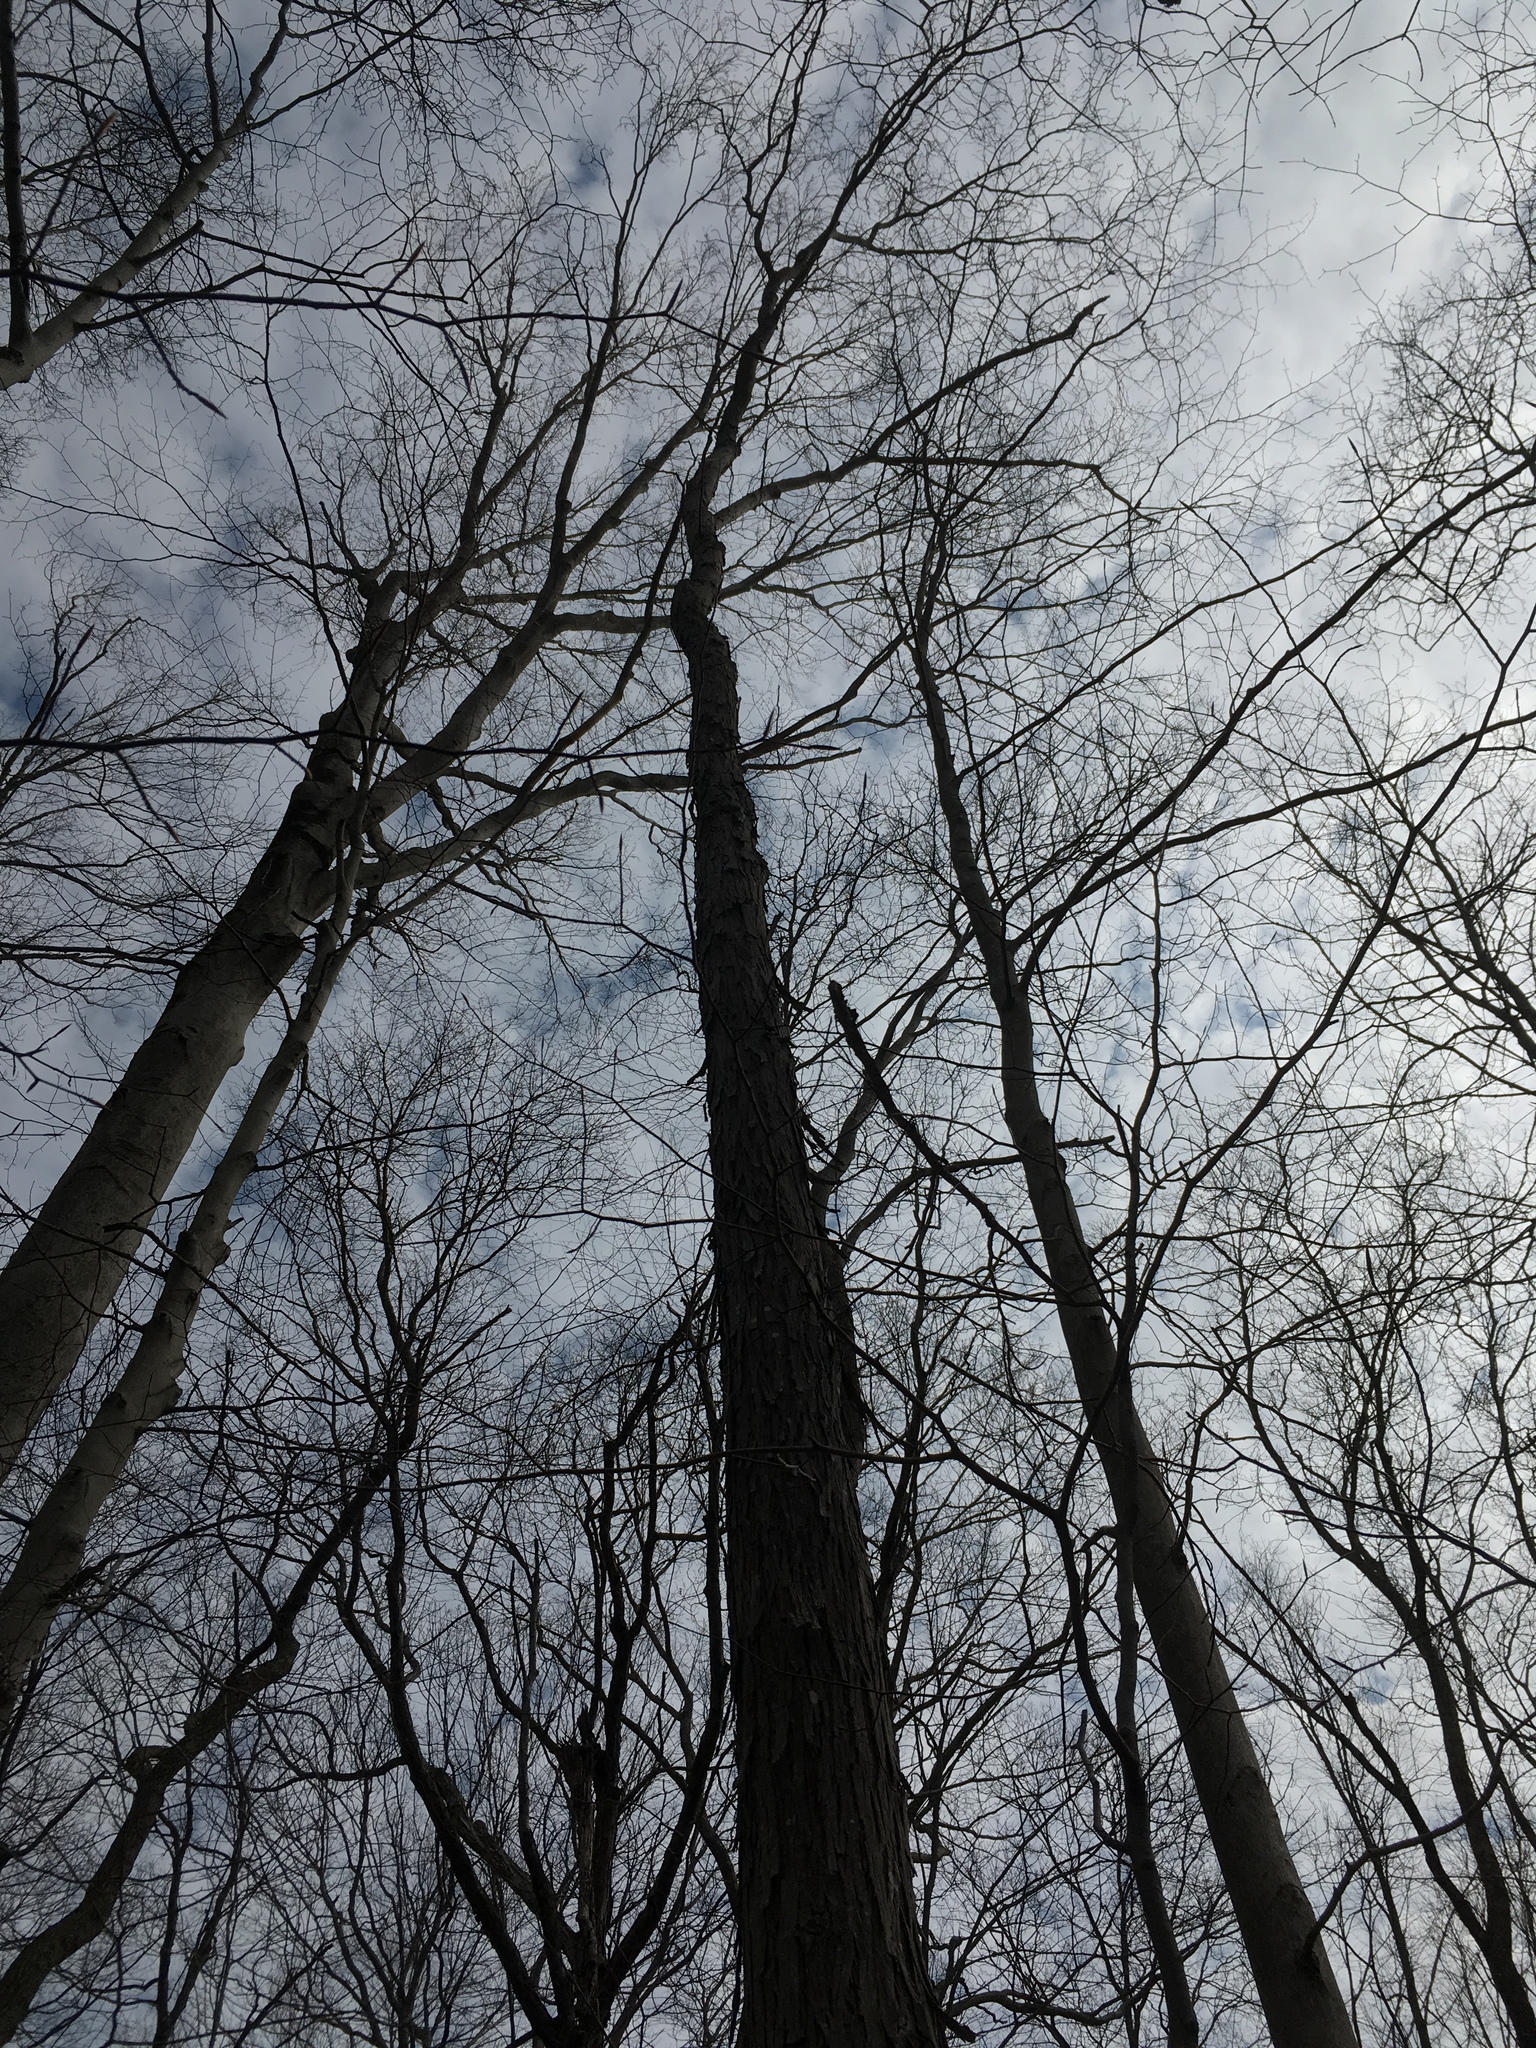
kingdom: Plantae
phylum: Tracheophyta
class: Magnoliopsida
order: Fagales
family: Juglandaceae
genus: Carya
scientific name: Carya ovata
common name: Shagbark hickory
